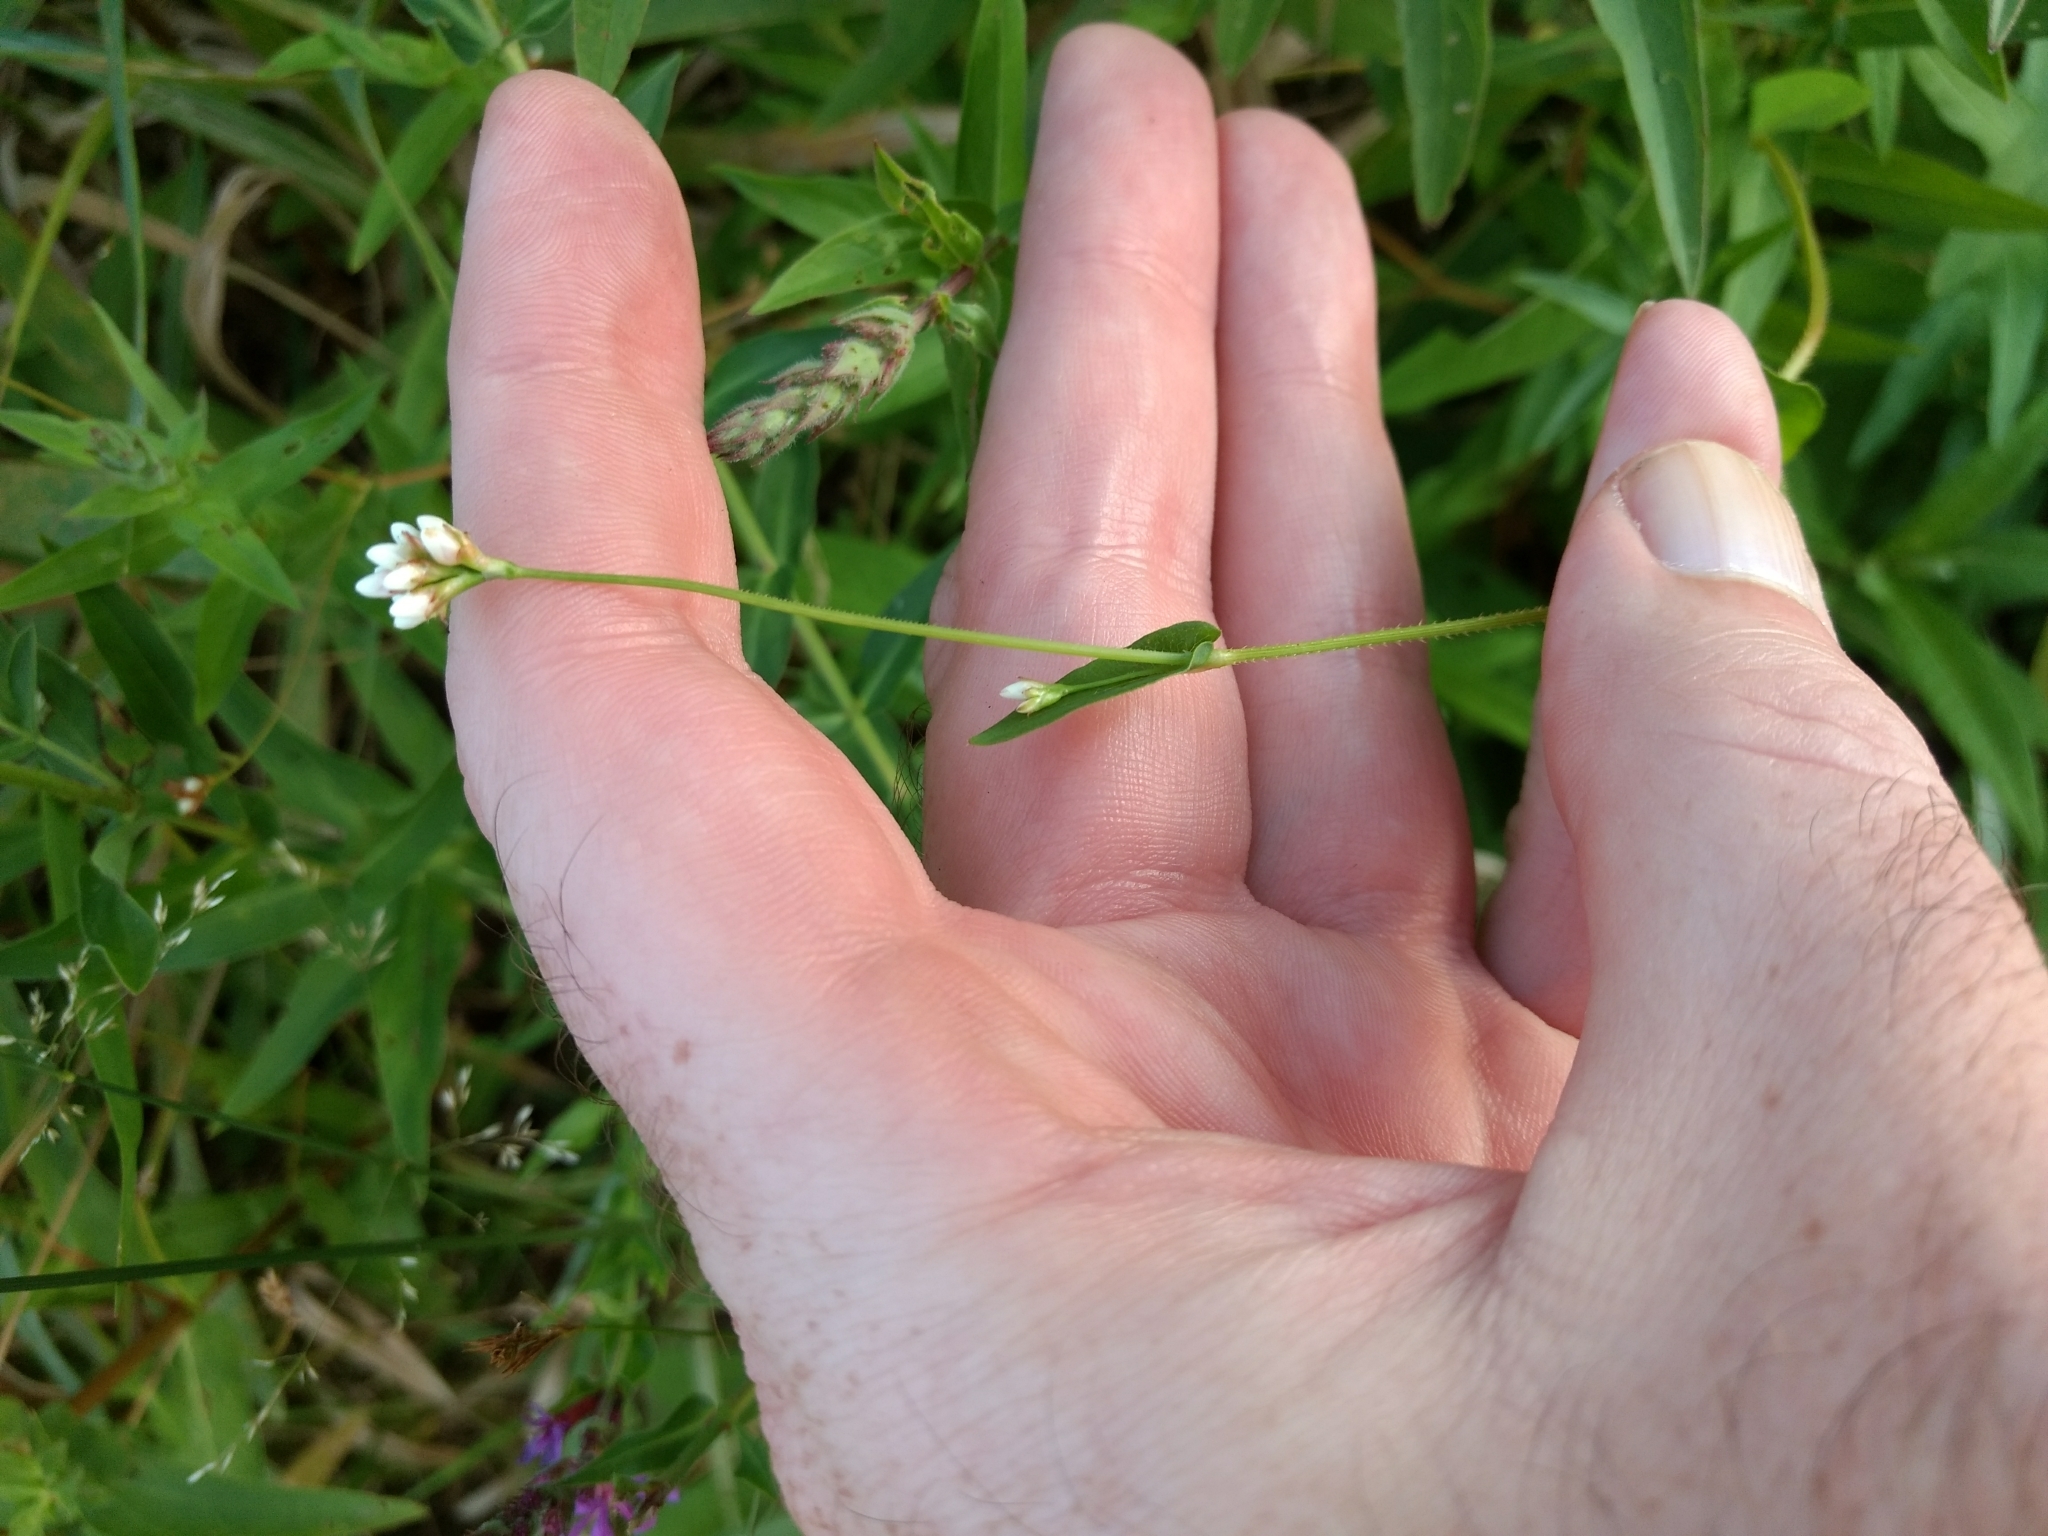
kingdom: Plantae
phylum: Tracheophyta
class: Magnoliopsida
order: Caryophyllales
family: Polygonaceae
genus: Persicaria
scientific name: Persicaria sagittata
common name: American tearthumb
